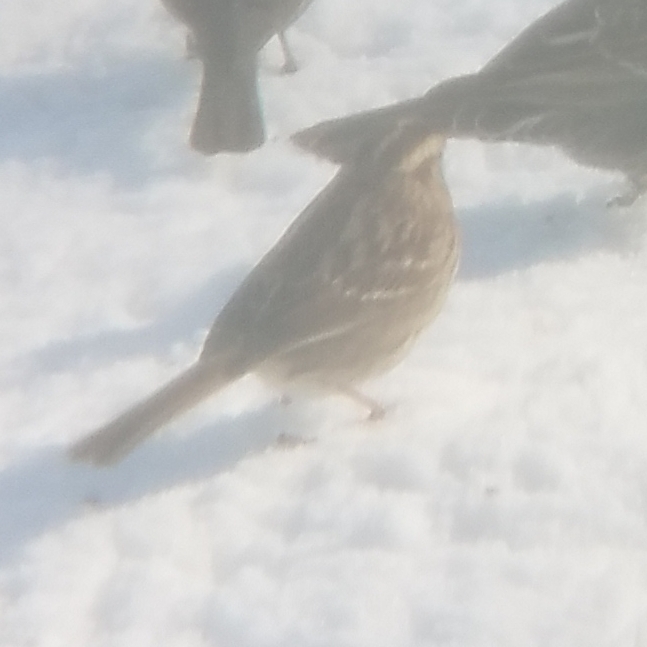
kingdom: Animalia
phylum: Chordata
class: Aves
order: Passeriformes
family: Passerellidae
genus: Zonotrichia
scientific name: Zonotrichia albicollis
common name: White-throated sparrow
